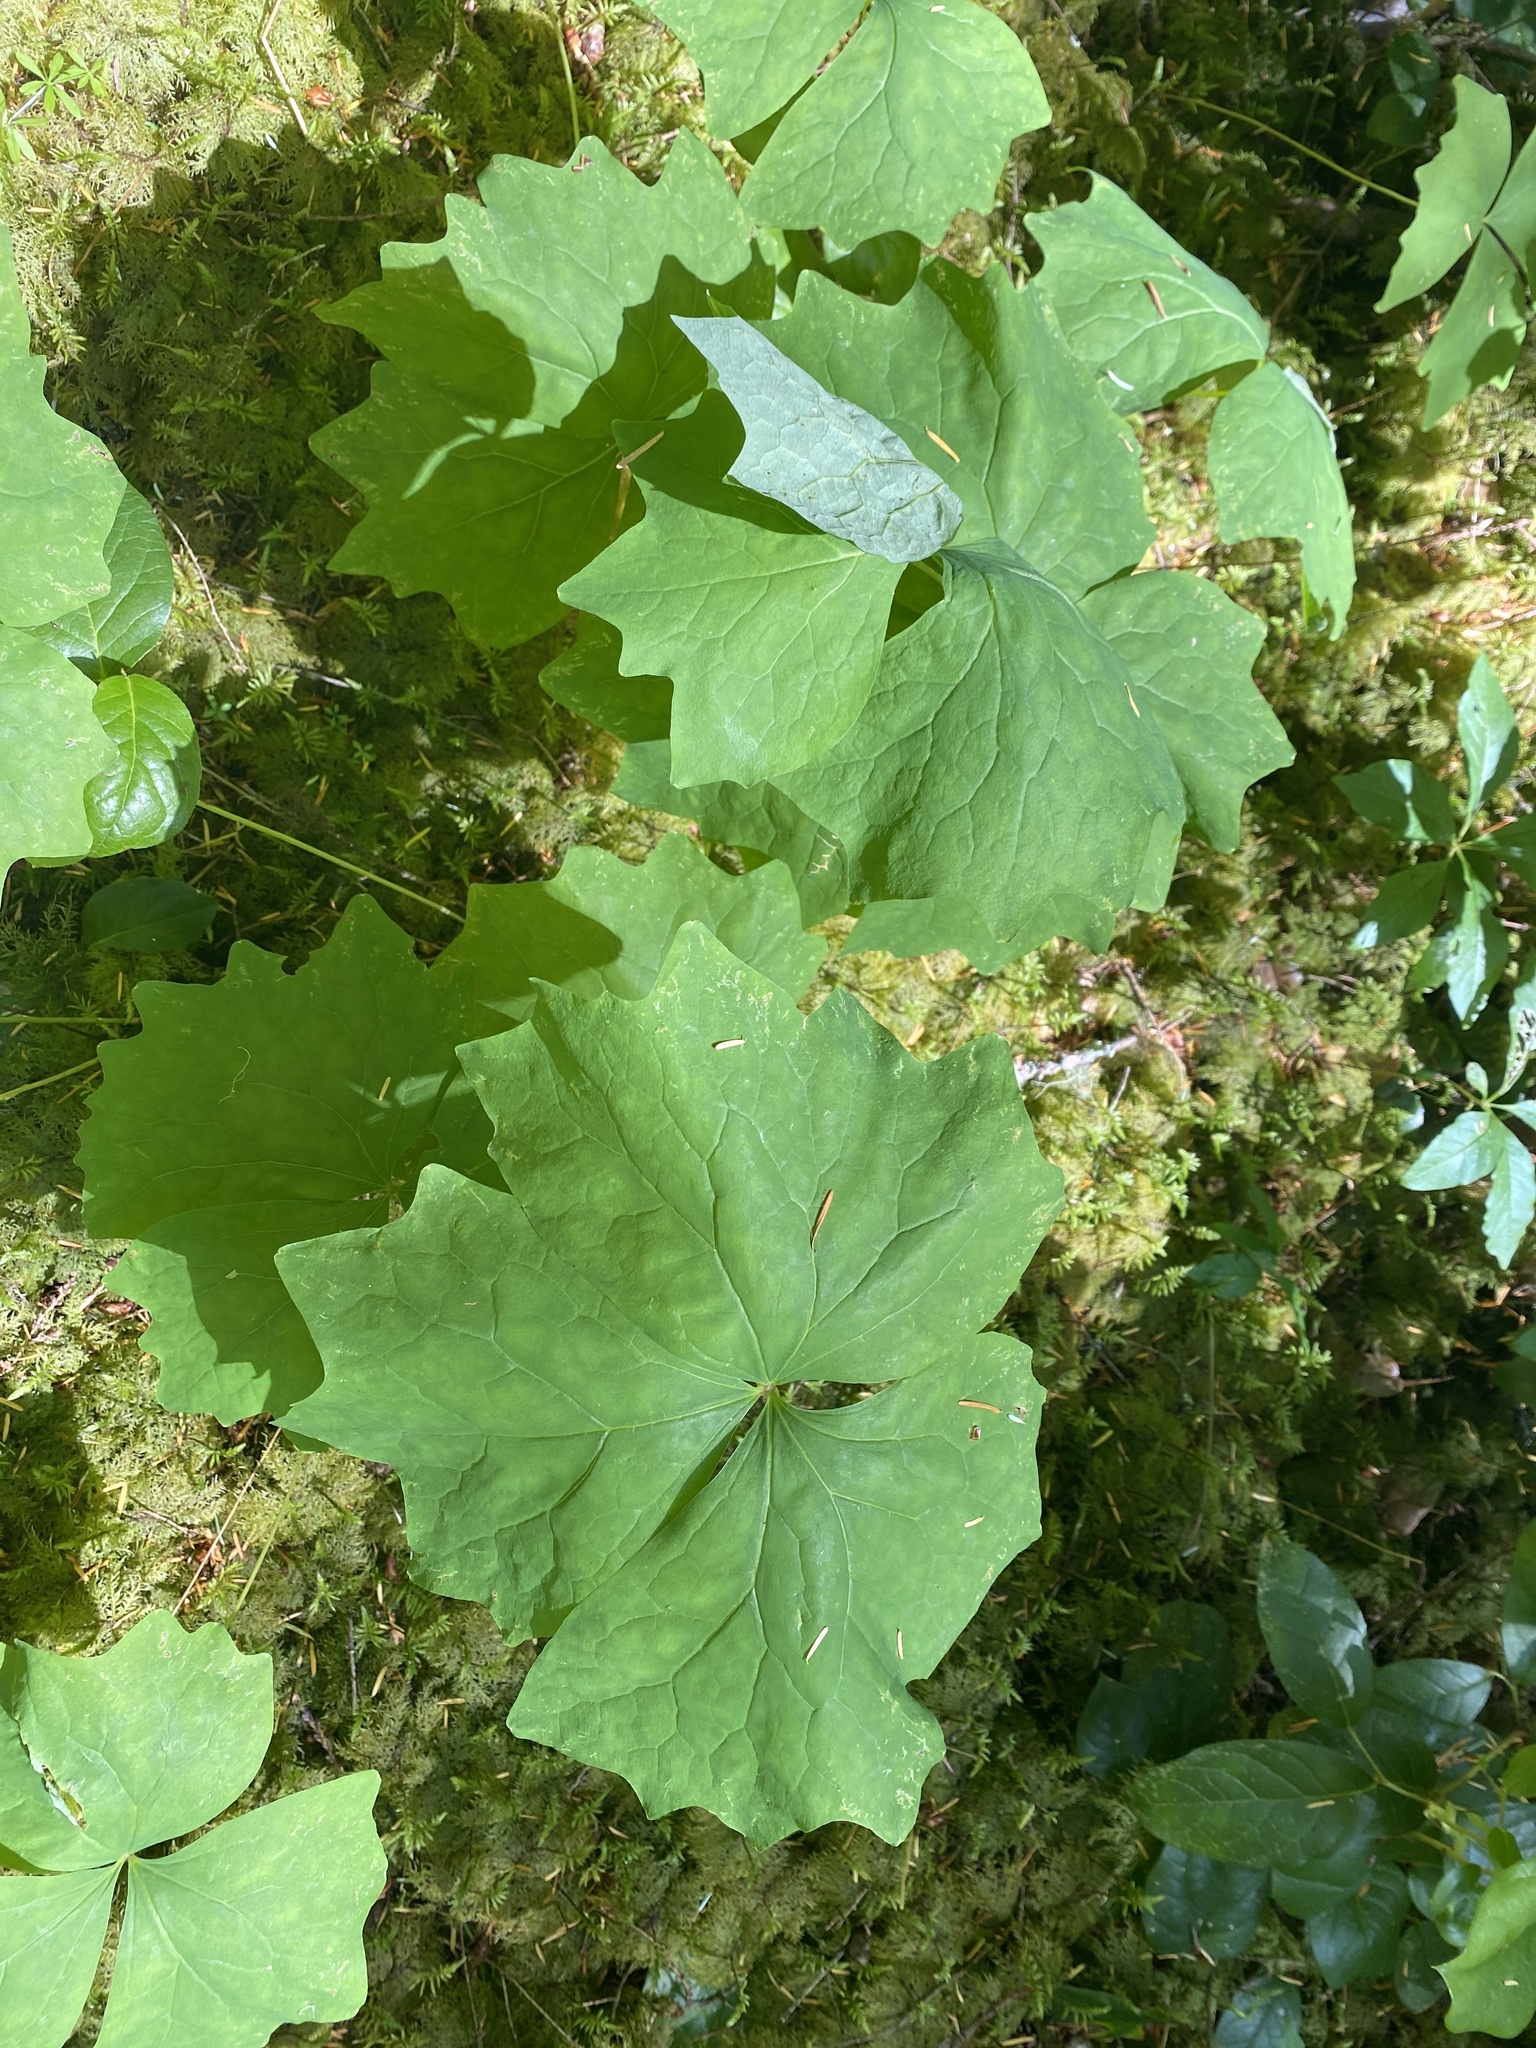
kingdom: Plantae
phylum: Tracheophyta
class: Magnoliopsida
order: Ranunculales
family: Berberidaceae
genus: Achlys
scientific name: Achlys triphylla
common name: Vanilla-leaf
